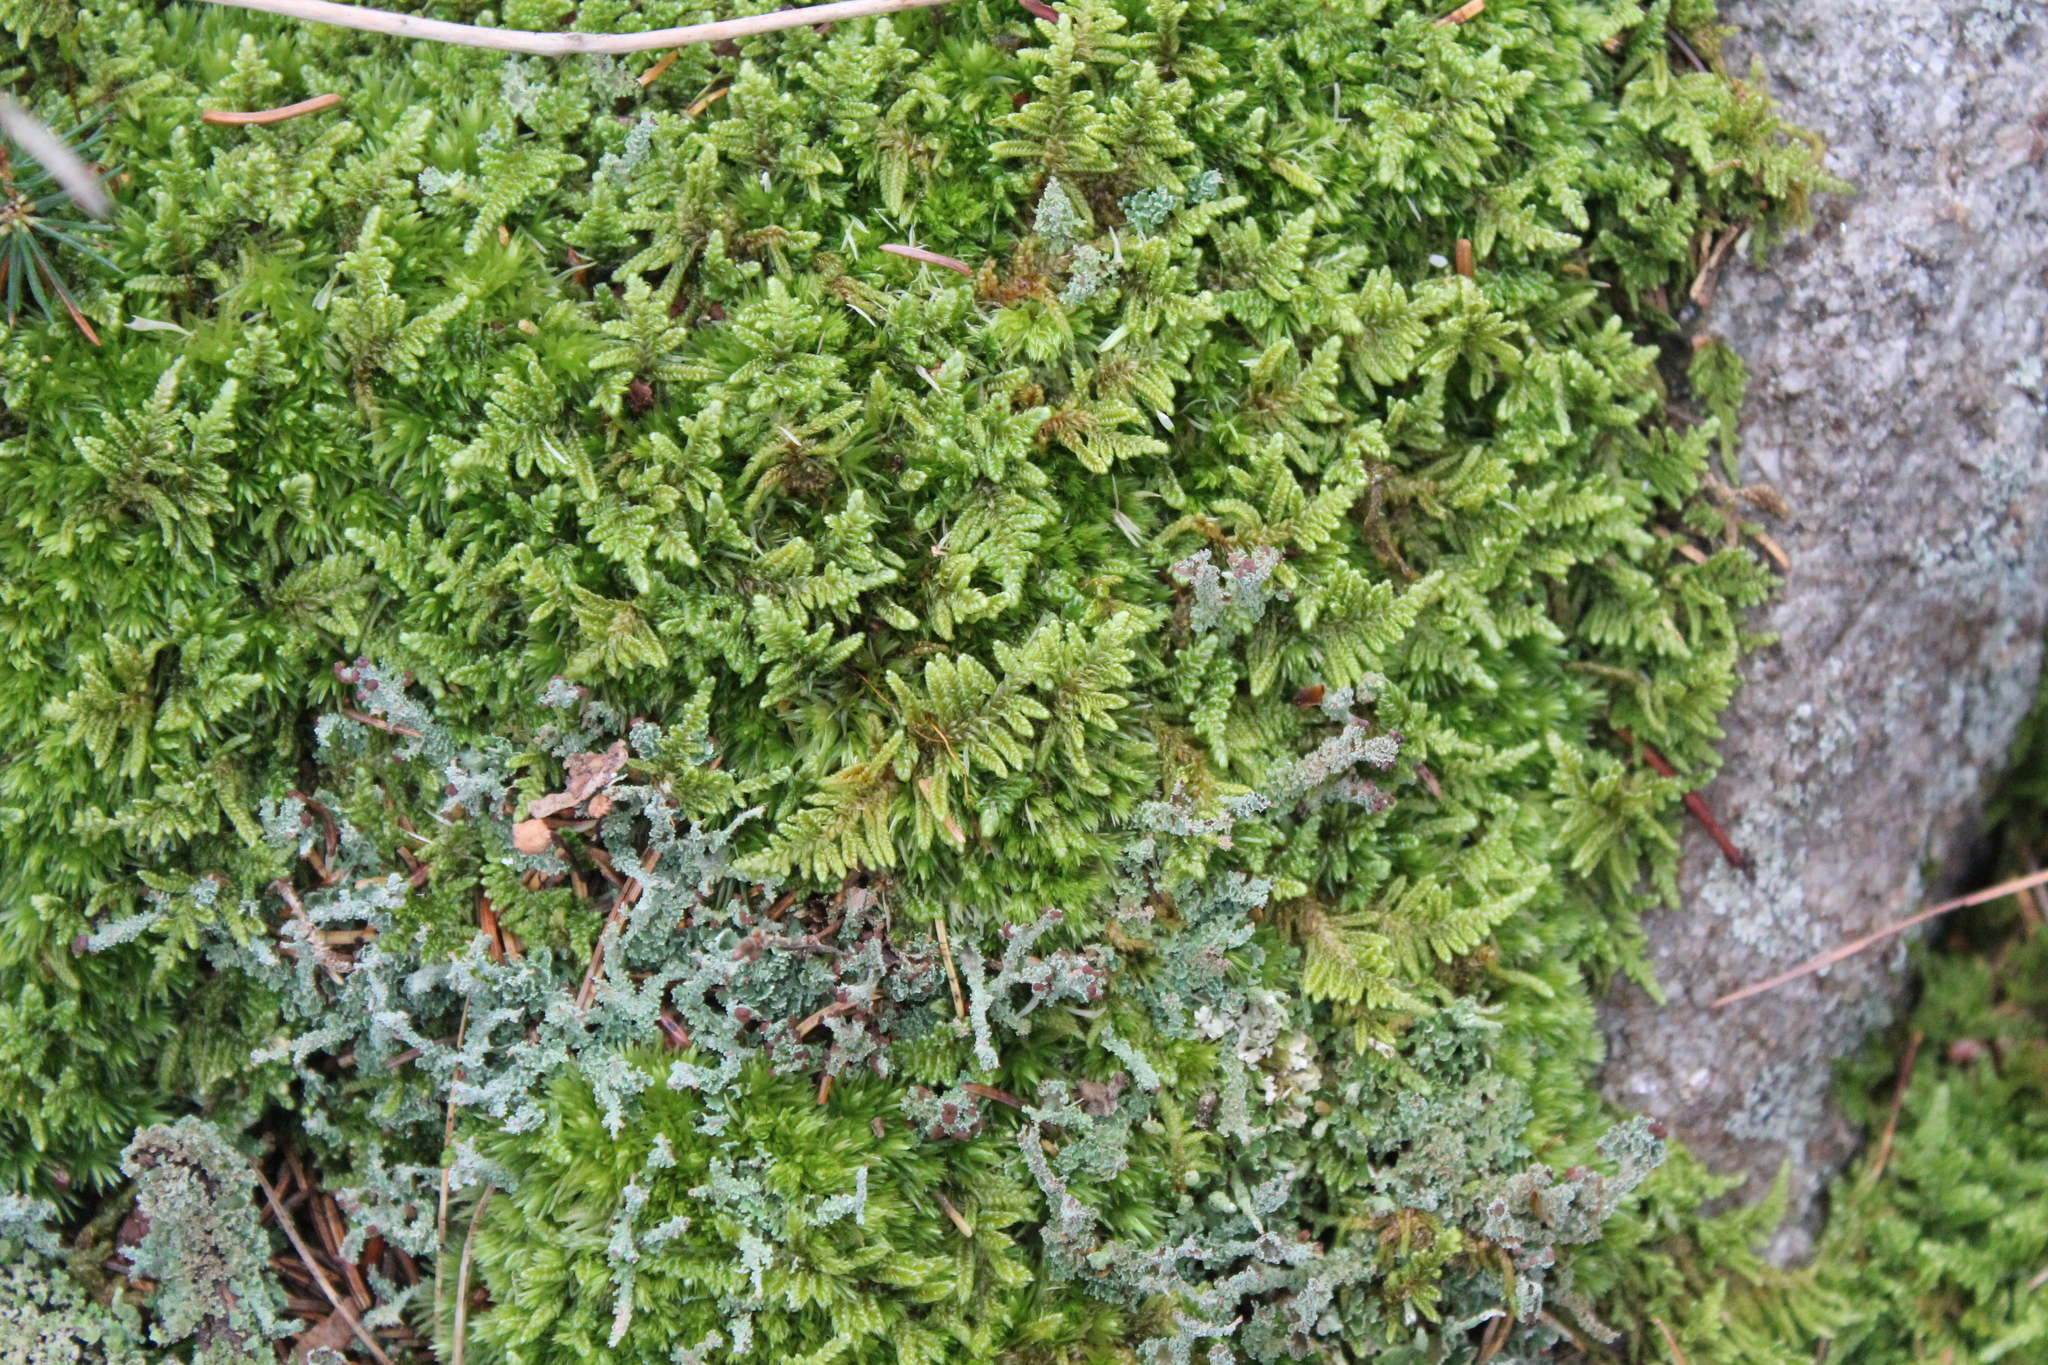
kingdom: Plantae
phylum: Bryophyta
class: Bryopsida
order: Hypnales
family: Callicladiaceae
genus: Callicladium
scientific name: Callicladium imponens
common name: Brocade moss
